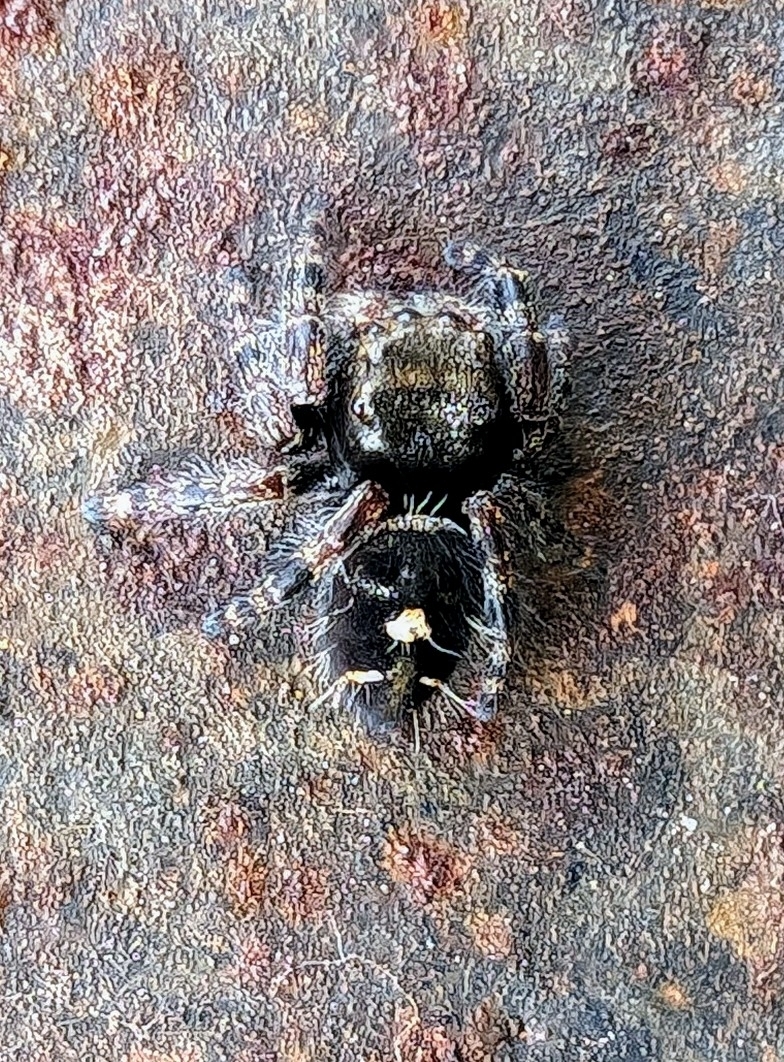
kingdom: Animalia
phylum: Arthropoda
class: Arachnida
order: Araneae
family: Salticidae
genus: Phidippus
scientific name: Phidippus audax
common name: Bold jumper
